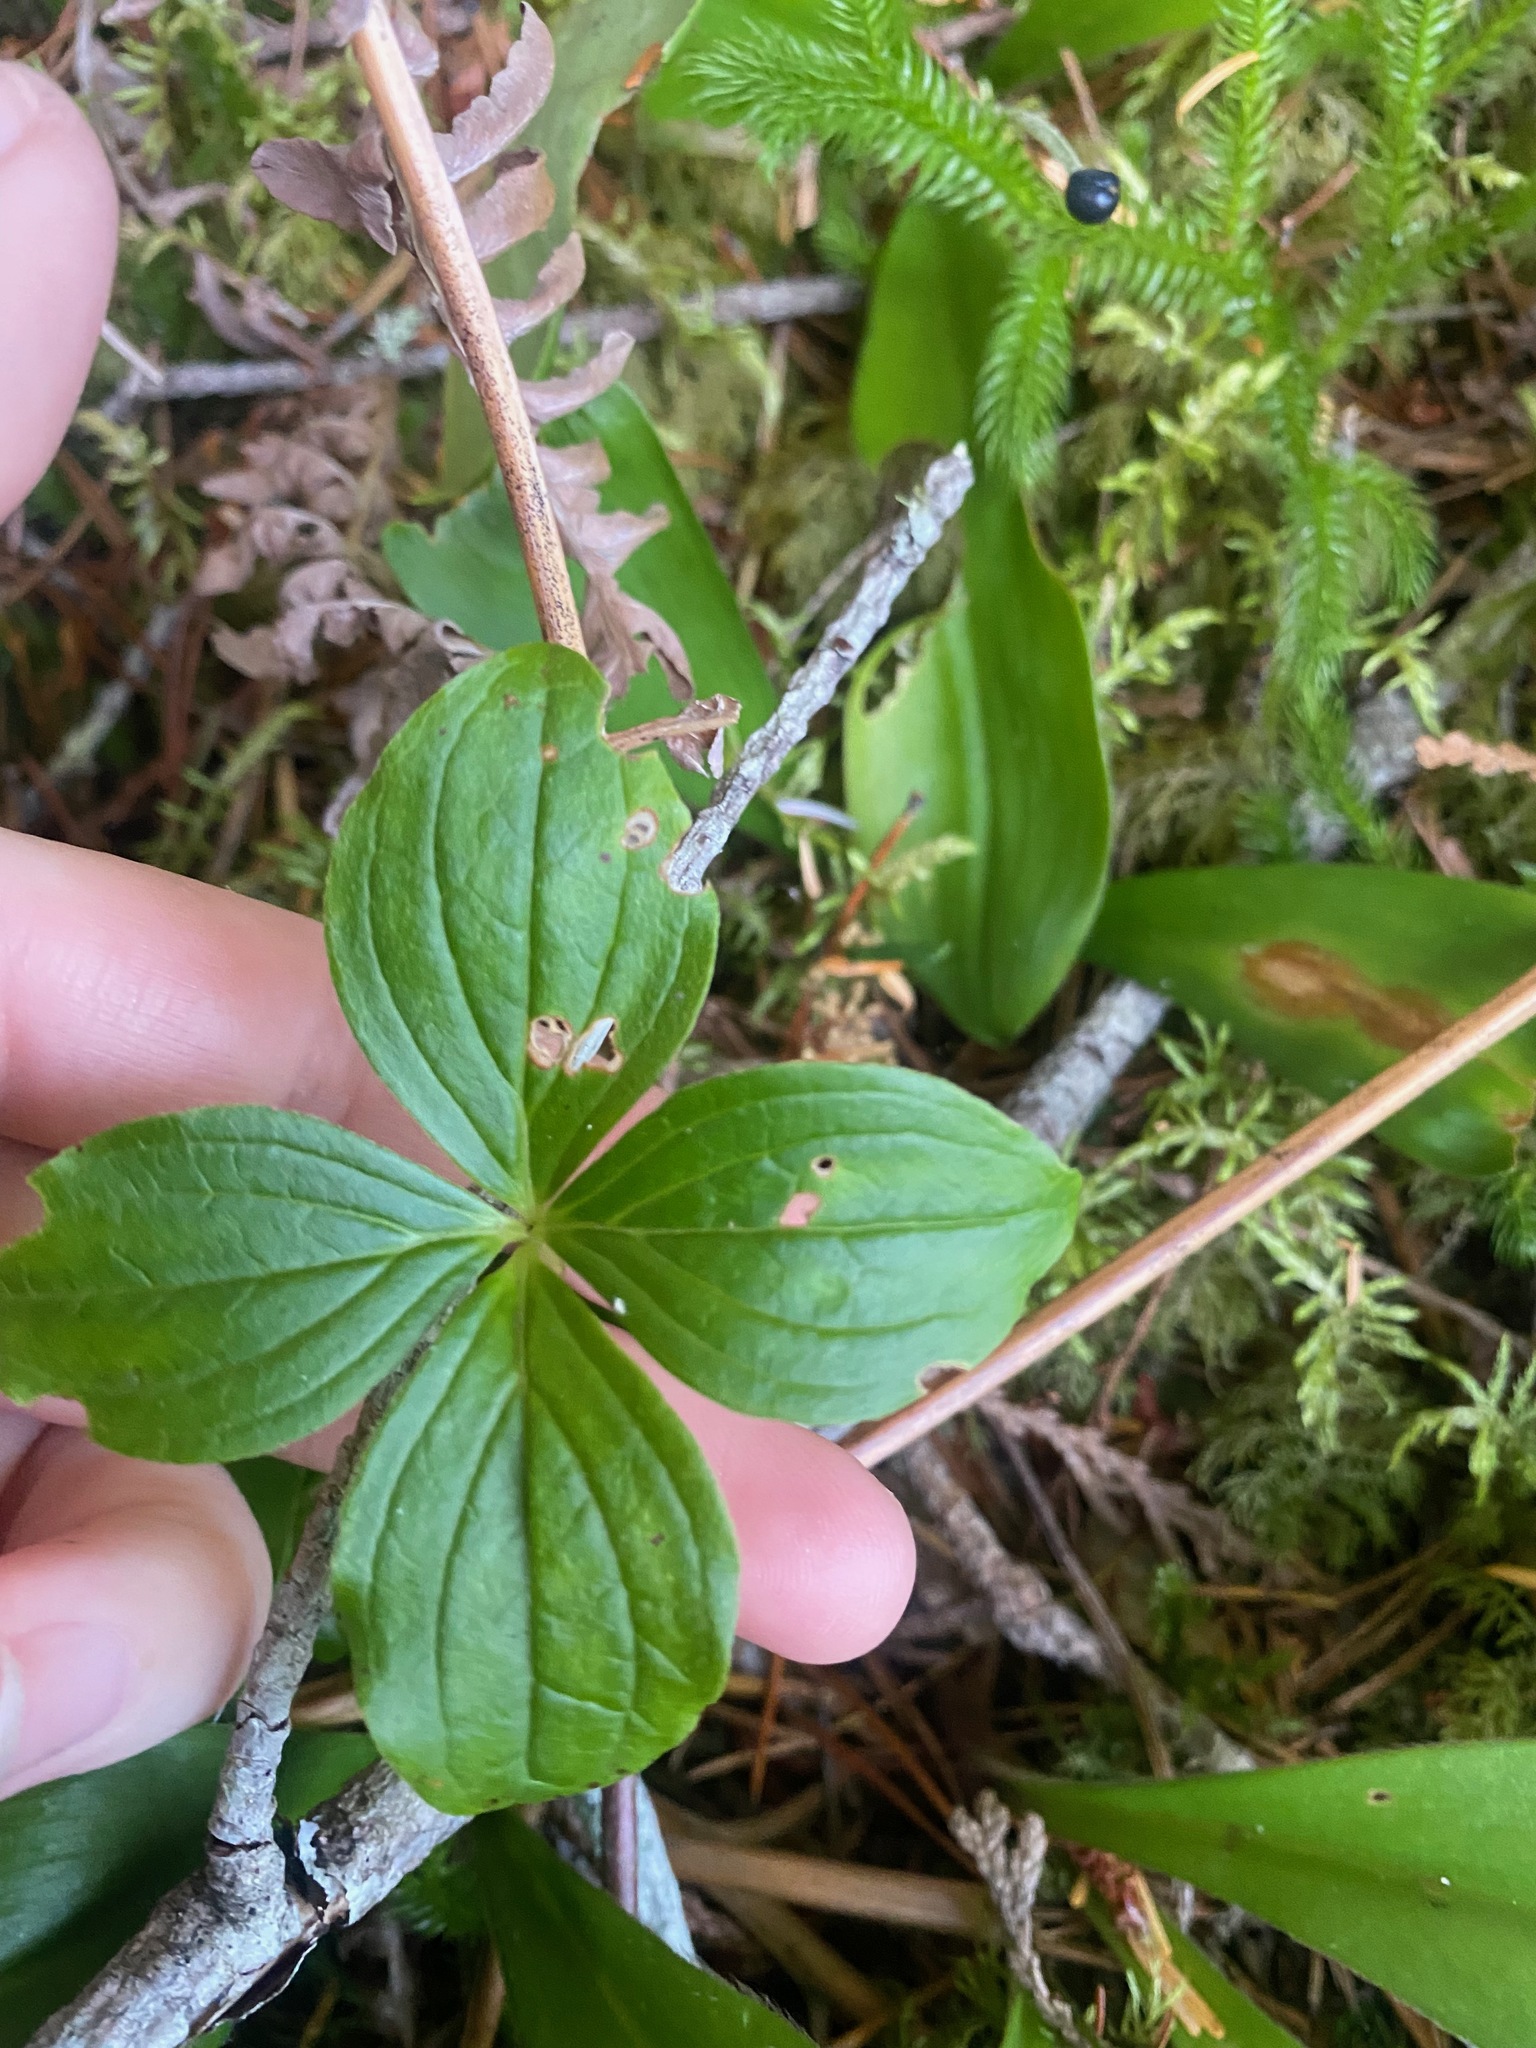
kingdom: Plantae
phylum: Tracheophyta
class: Magnoliopsida
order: Cornales
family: Cornaceae
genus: Cornus
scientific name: Cornus unalaschkensis
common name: Alaska bunchberry
